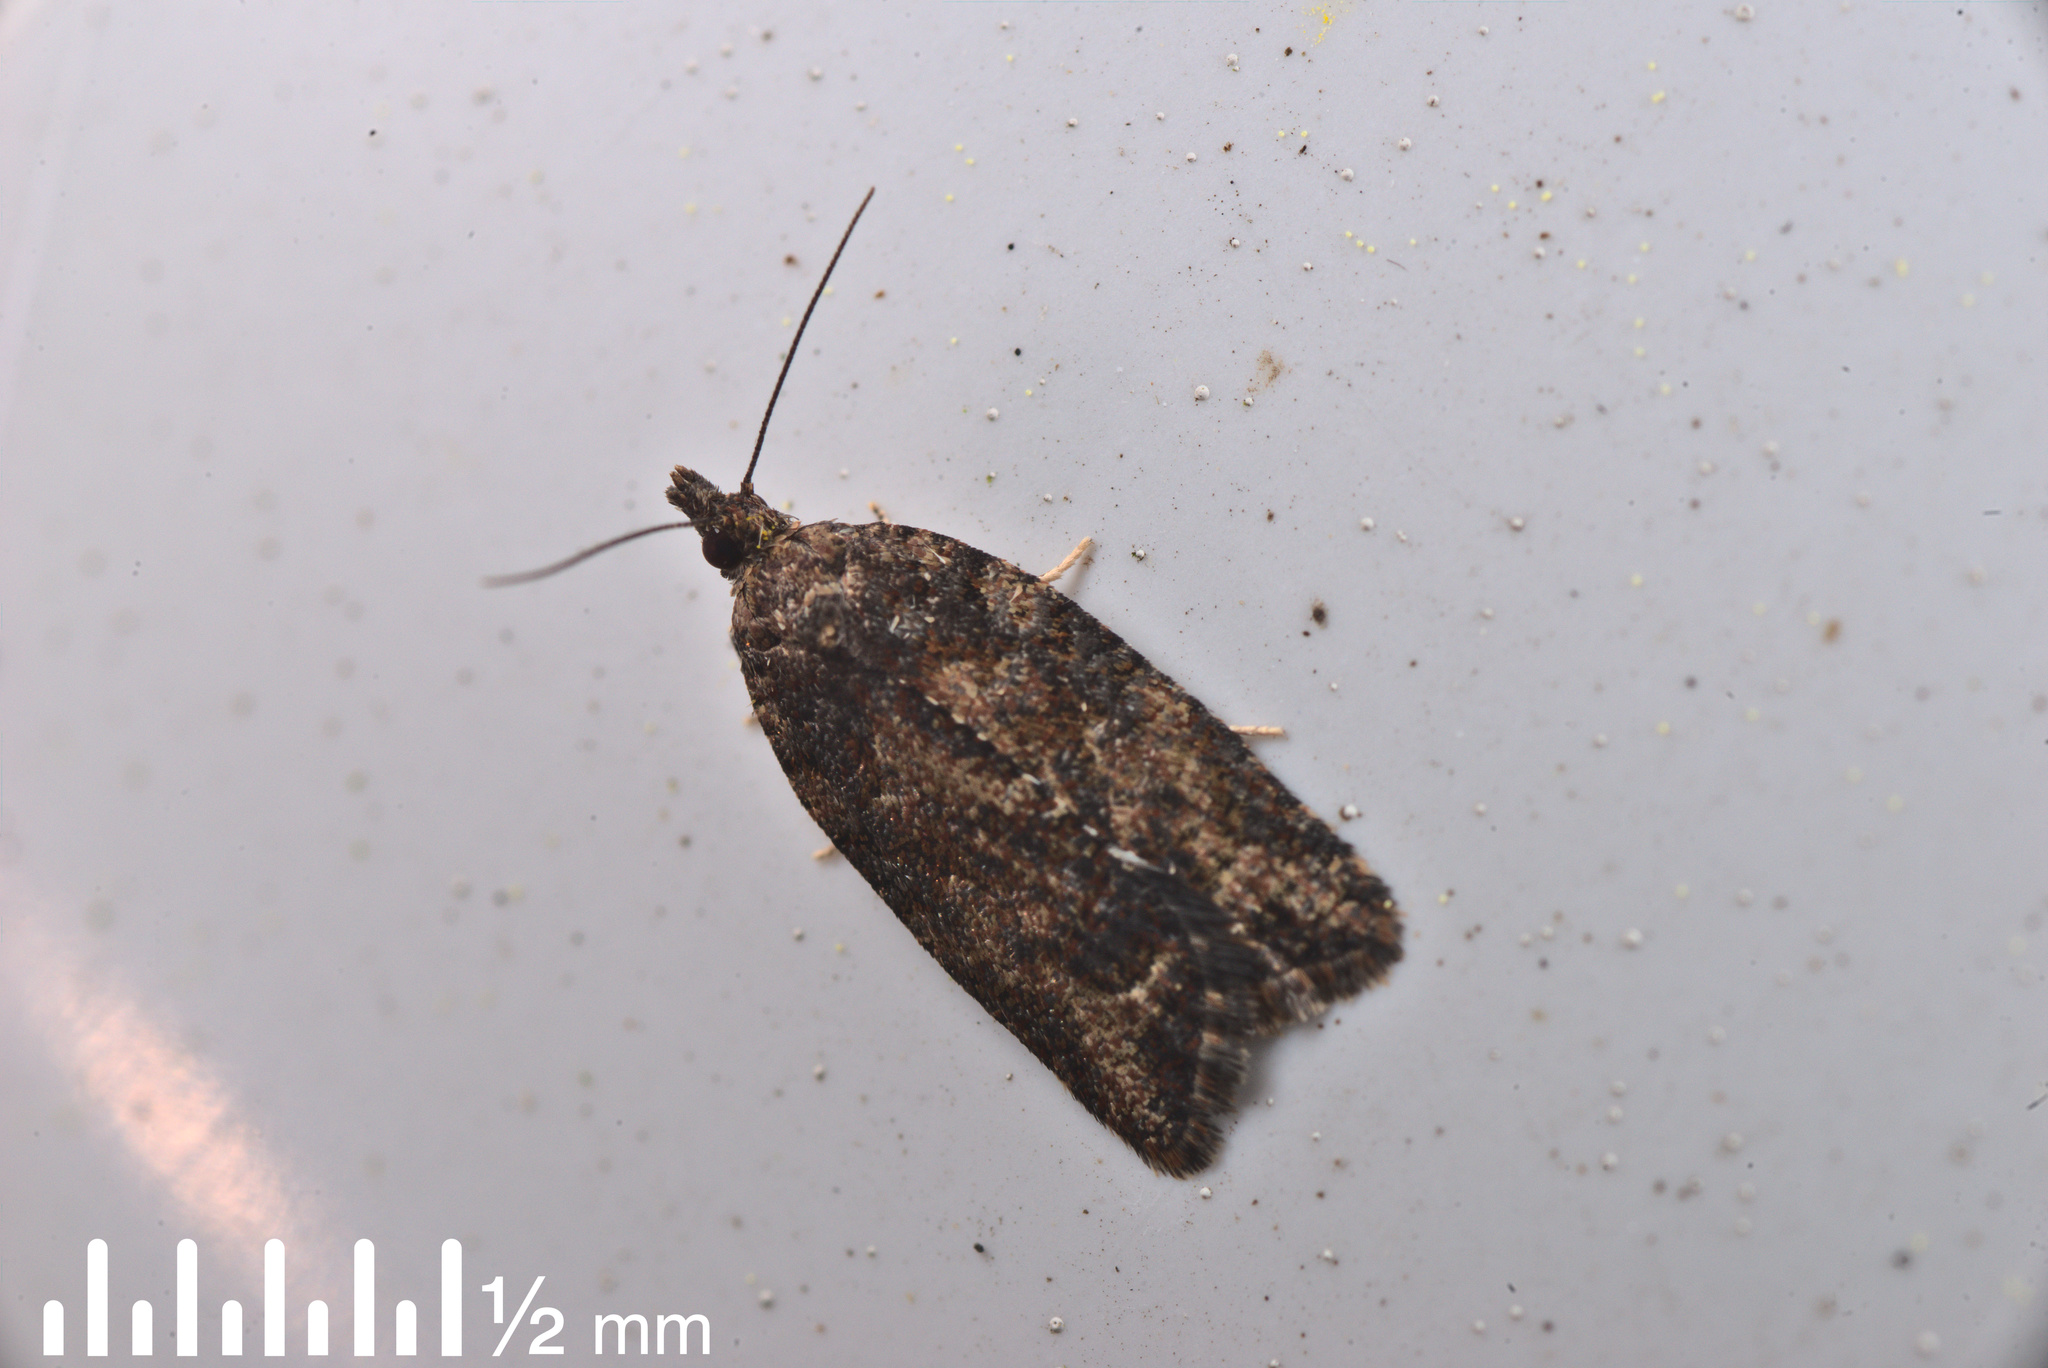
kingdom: Animalia
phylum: Arthropoda
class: Insecta
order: Lepidoptera
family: Tortricidae
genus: Capua
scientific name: Capua intractana
